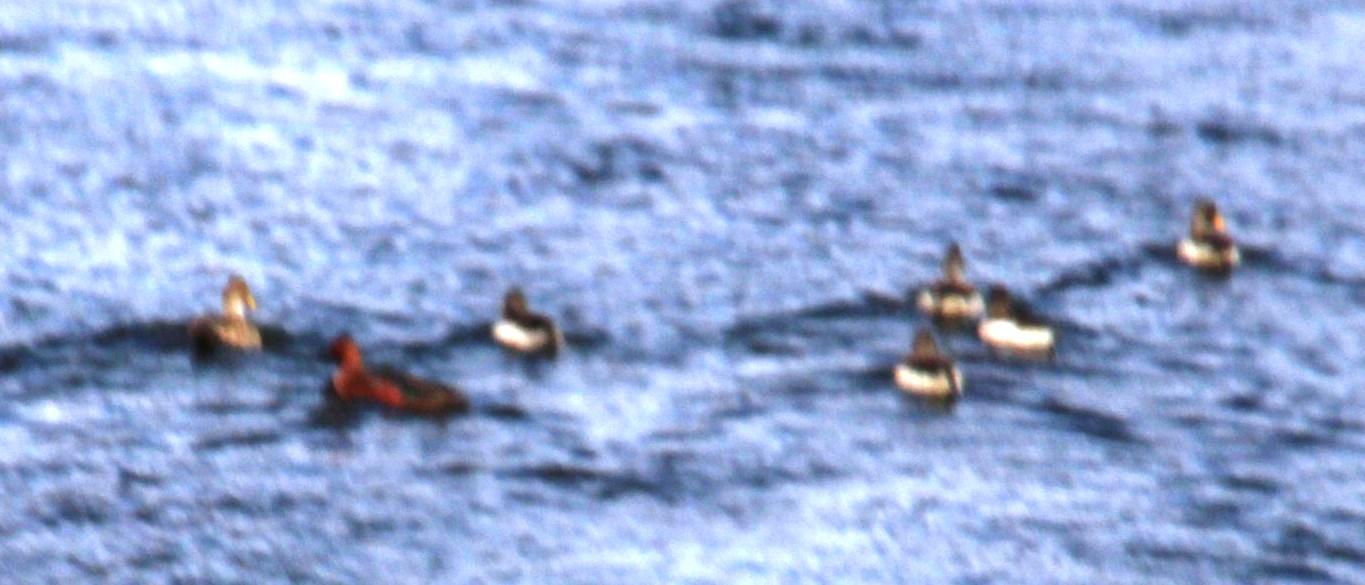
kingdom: Animalia
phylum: Chordata
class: Aves
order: Anseriformes
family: Anatidae
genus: Spatula
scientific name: Spatula cyanoptera
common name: Cinnamon teal
